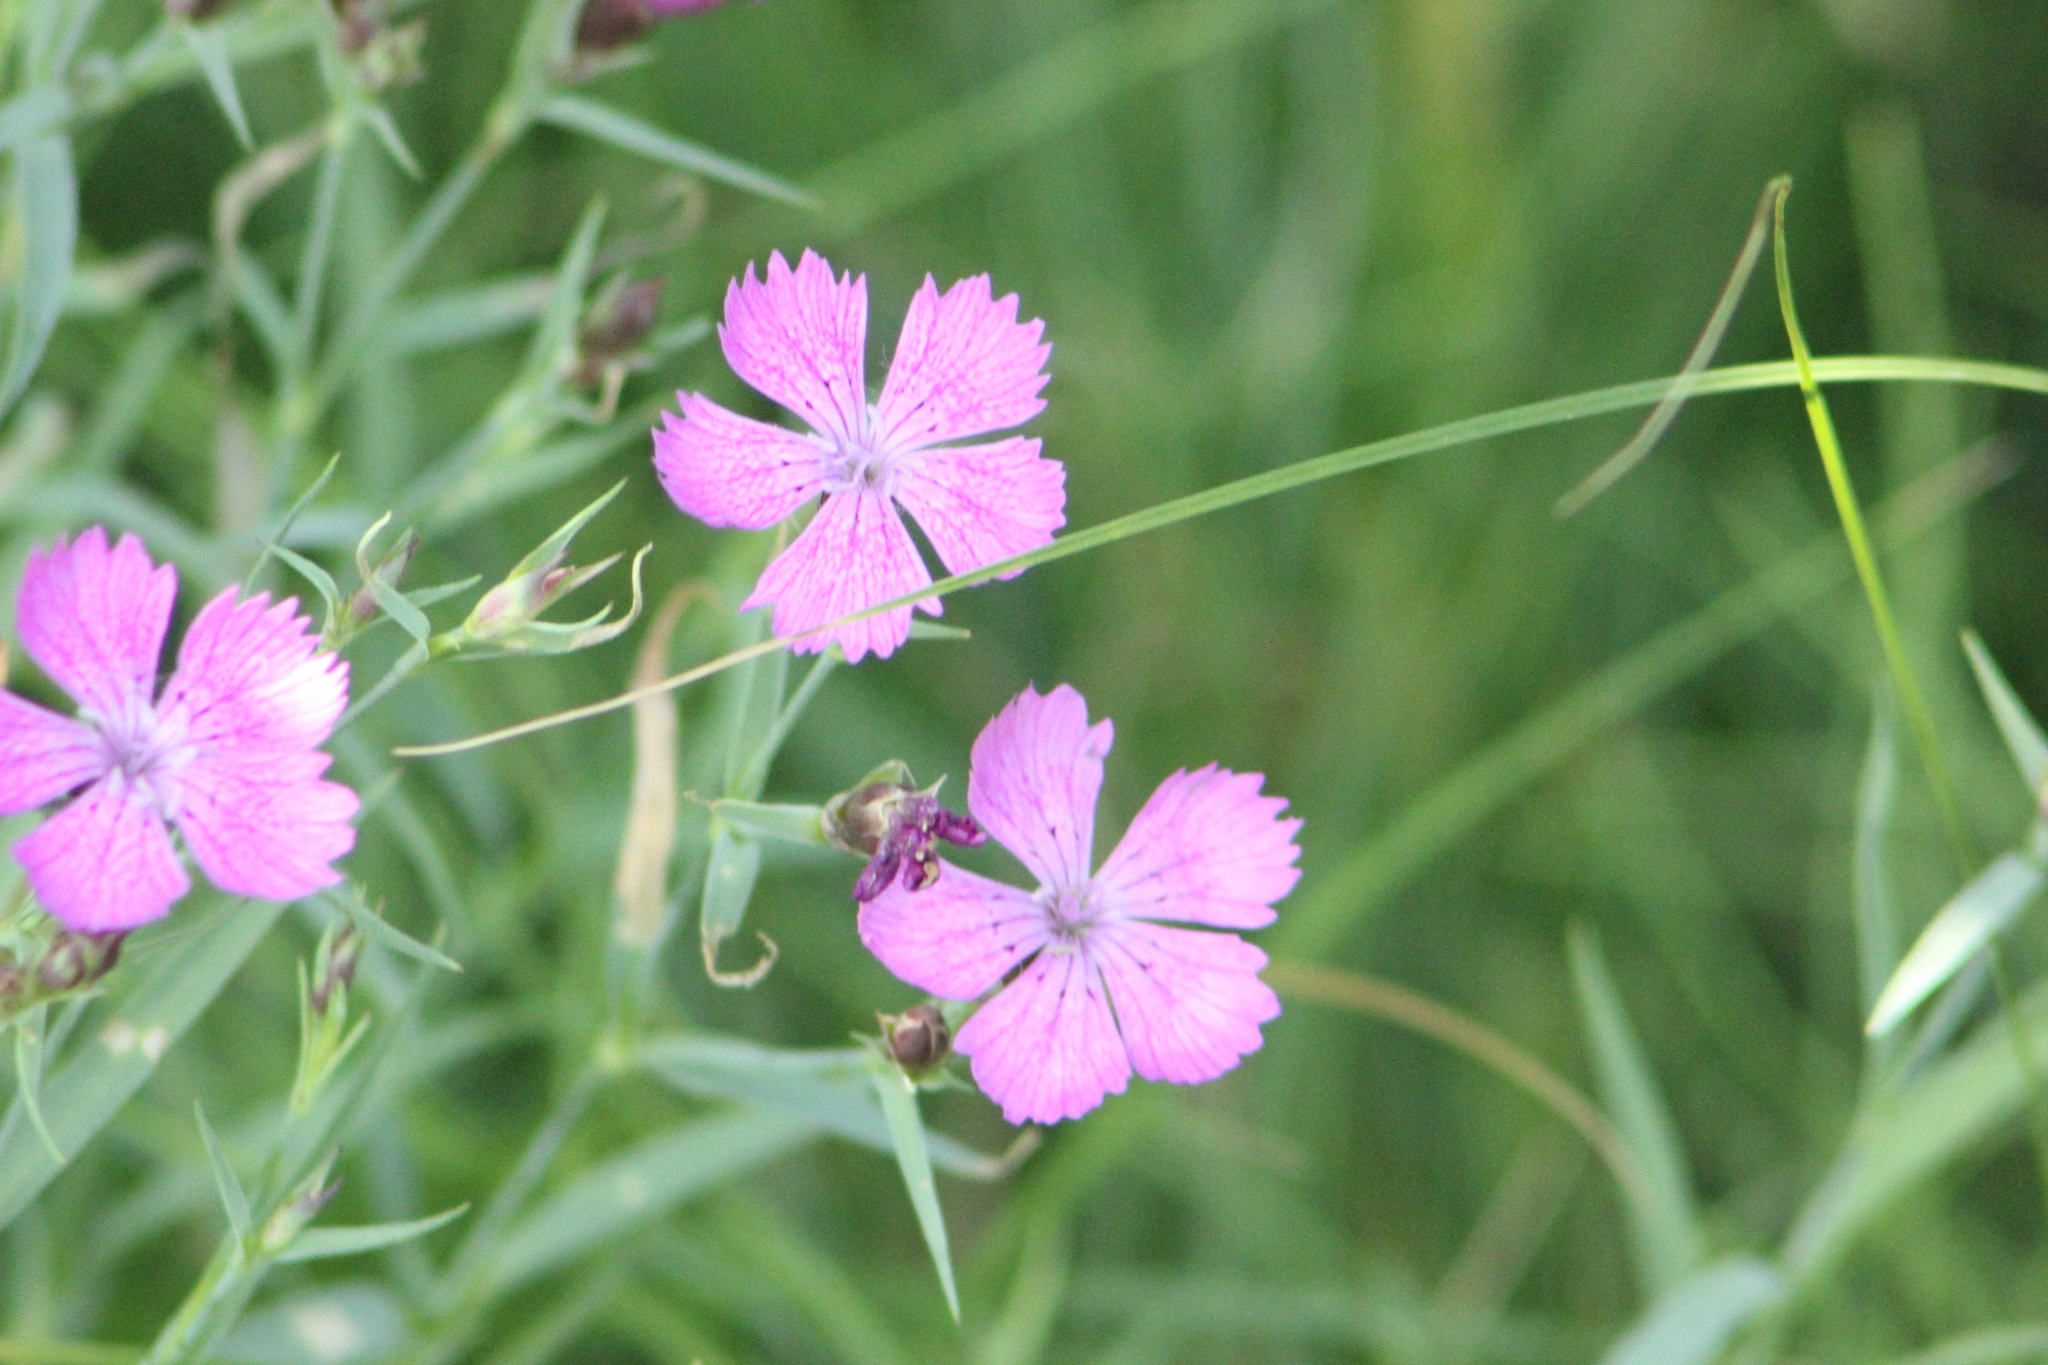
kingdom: Plantae
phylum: Tracheophyta
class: Magnoliopsida
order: Caryophyllales
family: Caryophyllaceae
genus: Dianthus
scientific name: Dianthus chinensis
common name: Rainbow pink
